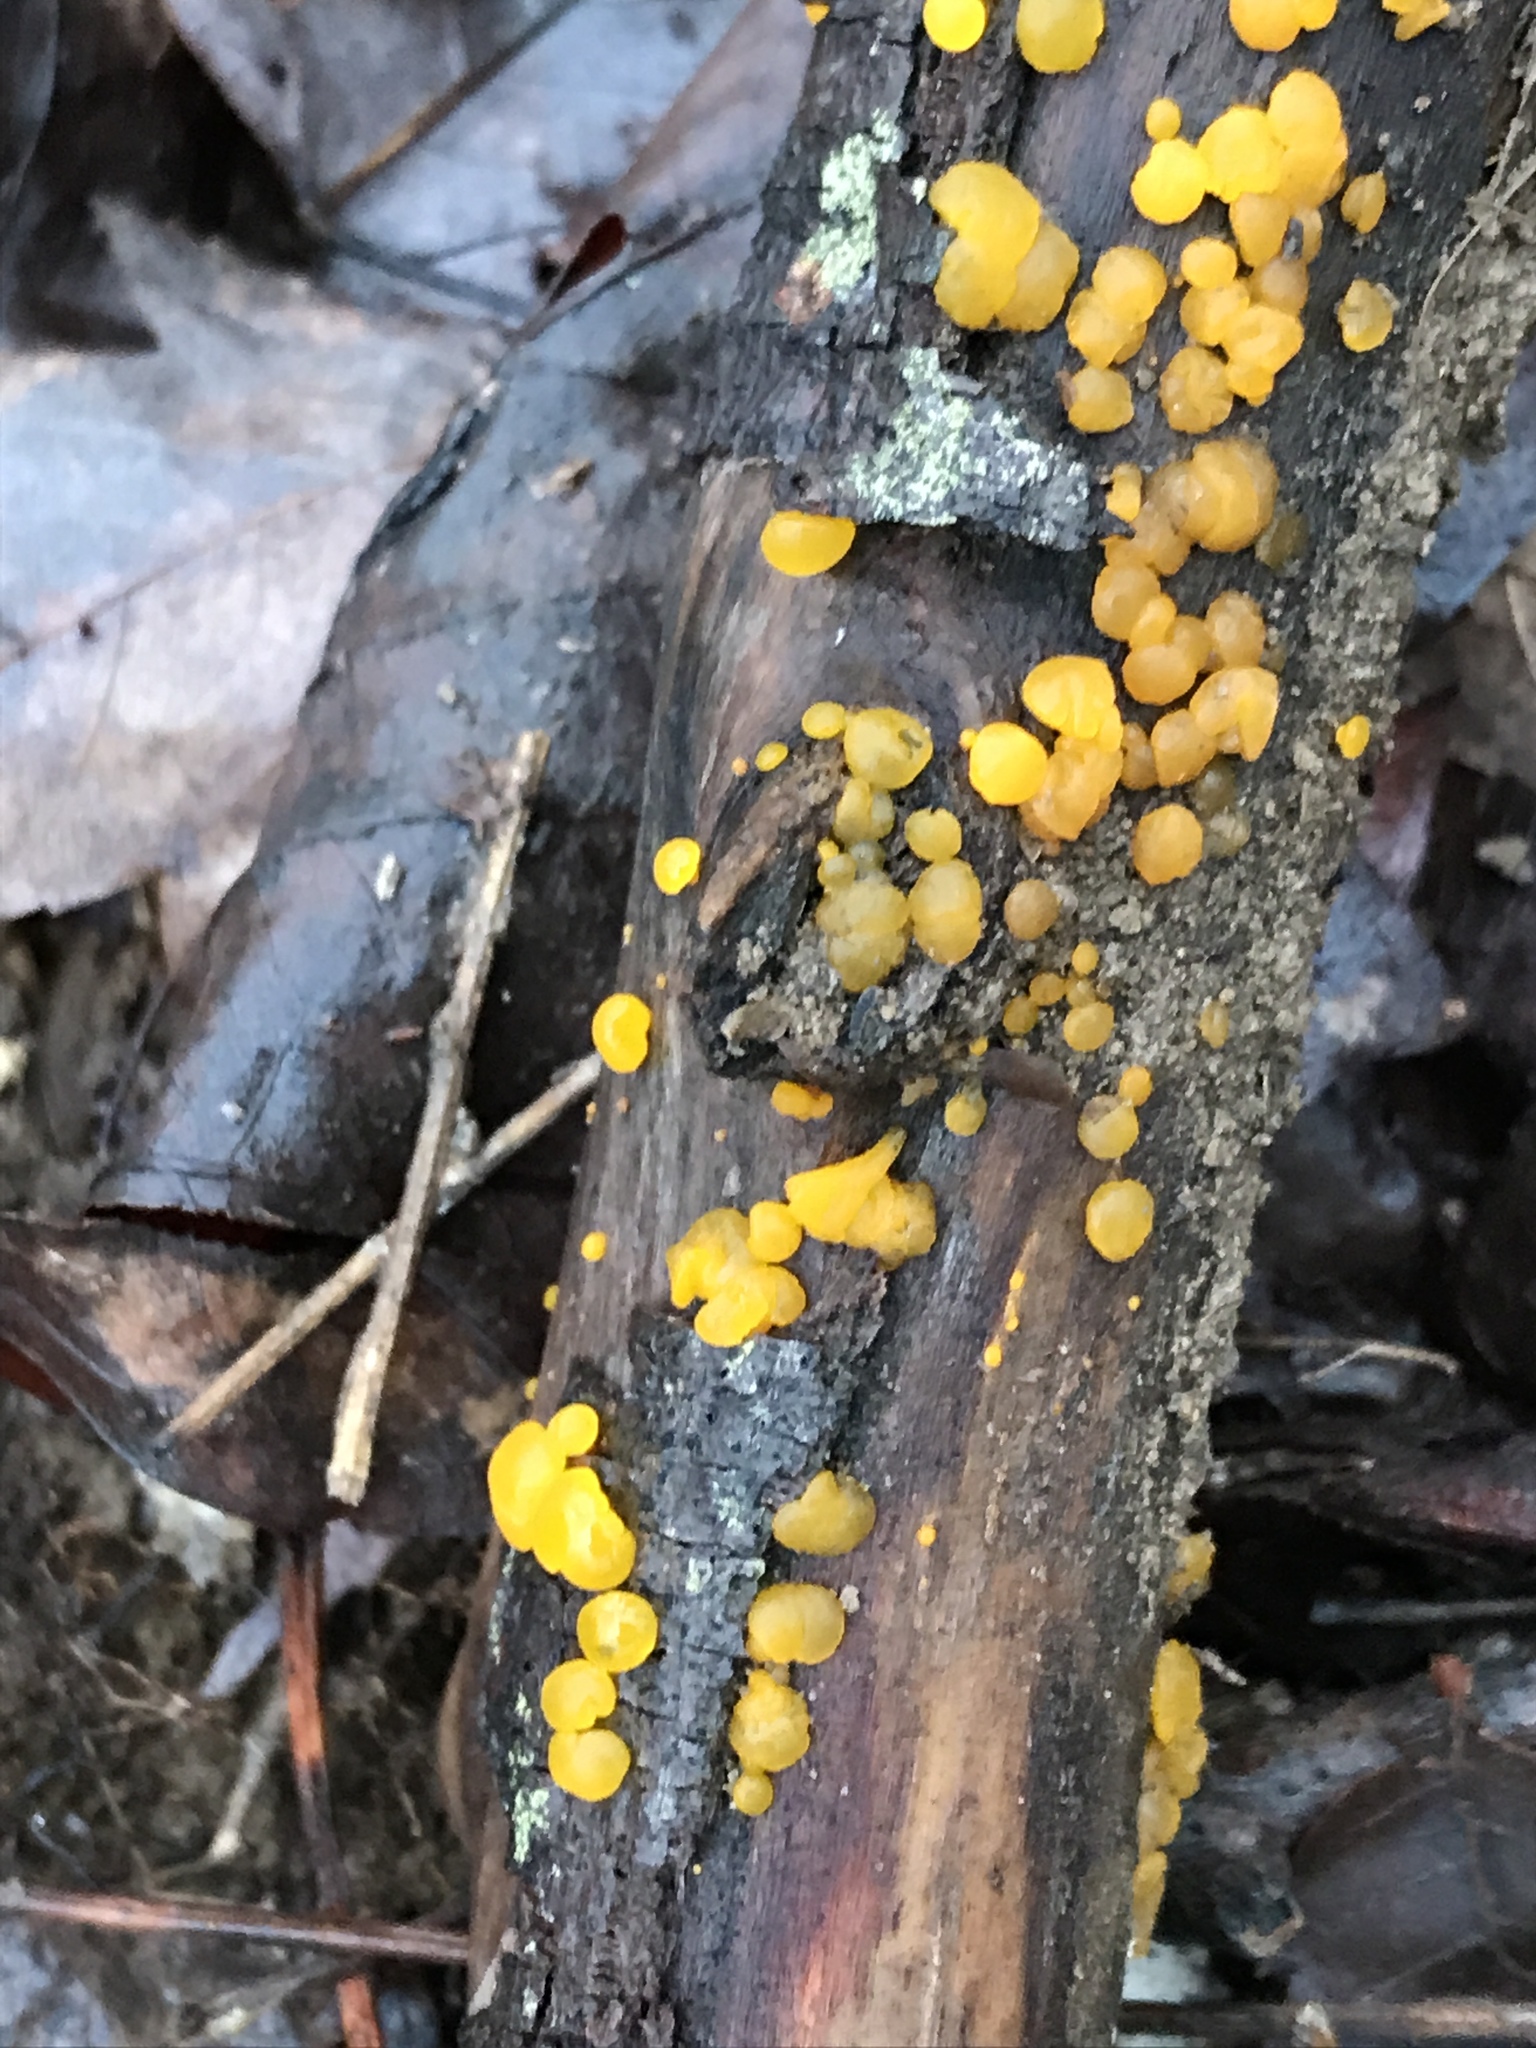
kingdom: Fungi
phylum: Basidiomycota
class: Dacrymycetes
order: Dacrymycetales
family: Dacrymycetaceae
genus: Dacrymyces
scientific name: Dacrymyces stillatus
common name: Common jelly spot
